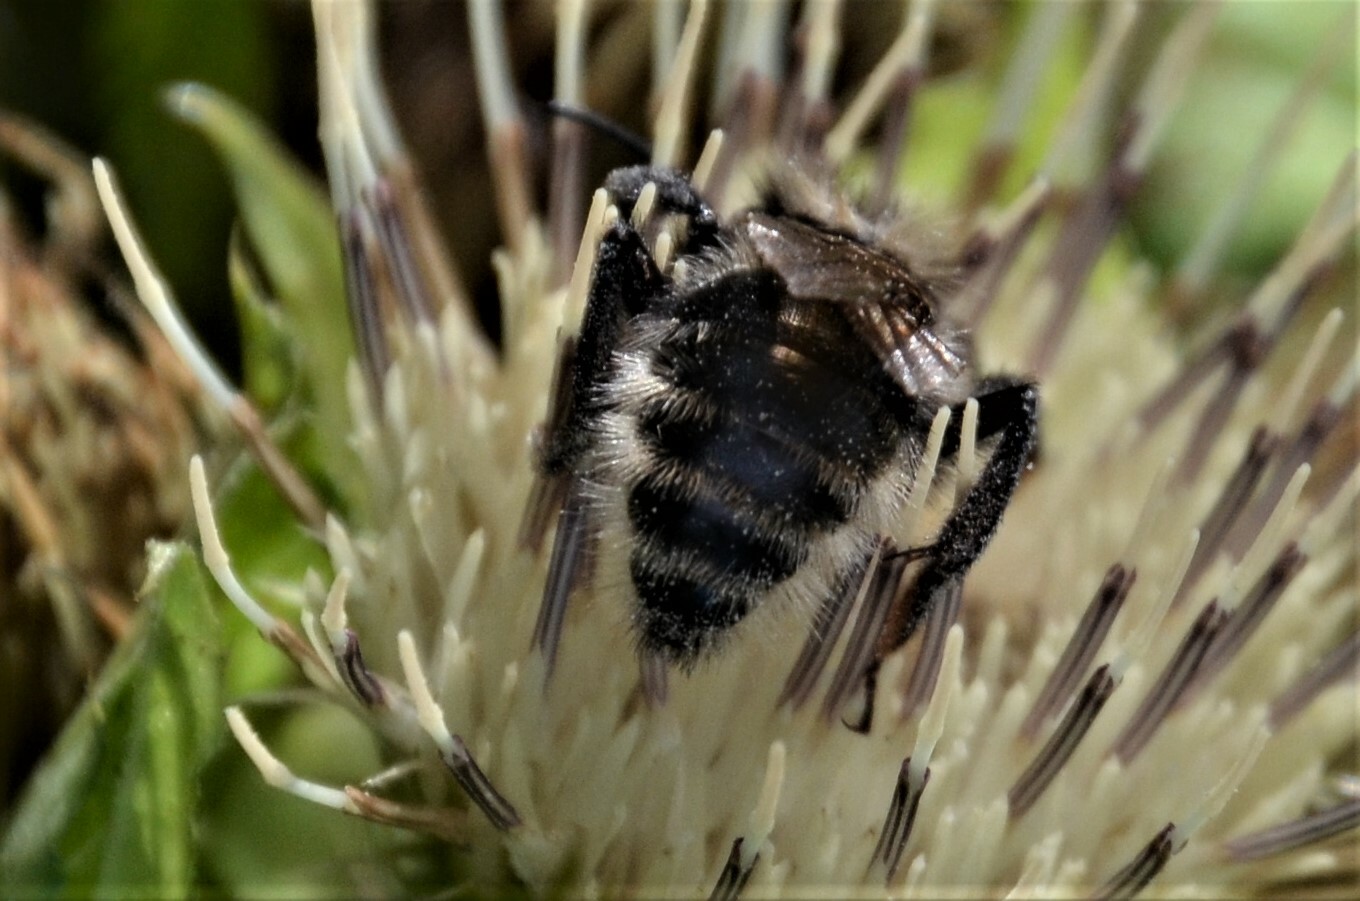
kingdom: Animalia
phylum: Arthropoda
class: Insecta
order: Hymenoptera
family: Apidae
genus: Bombus
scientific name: Bombus campestris
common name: Field cuckoo-bee
